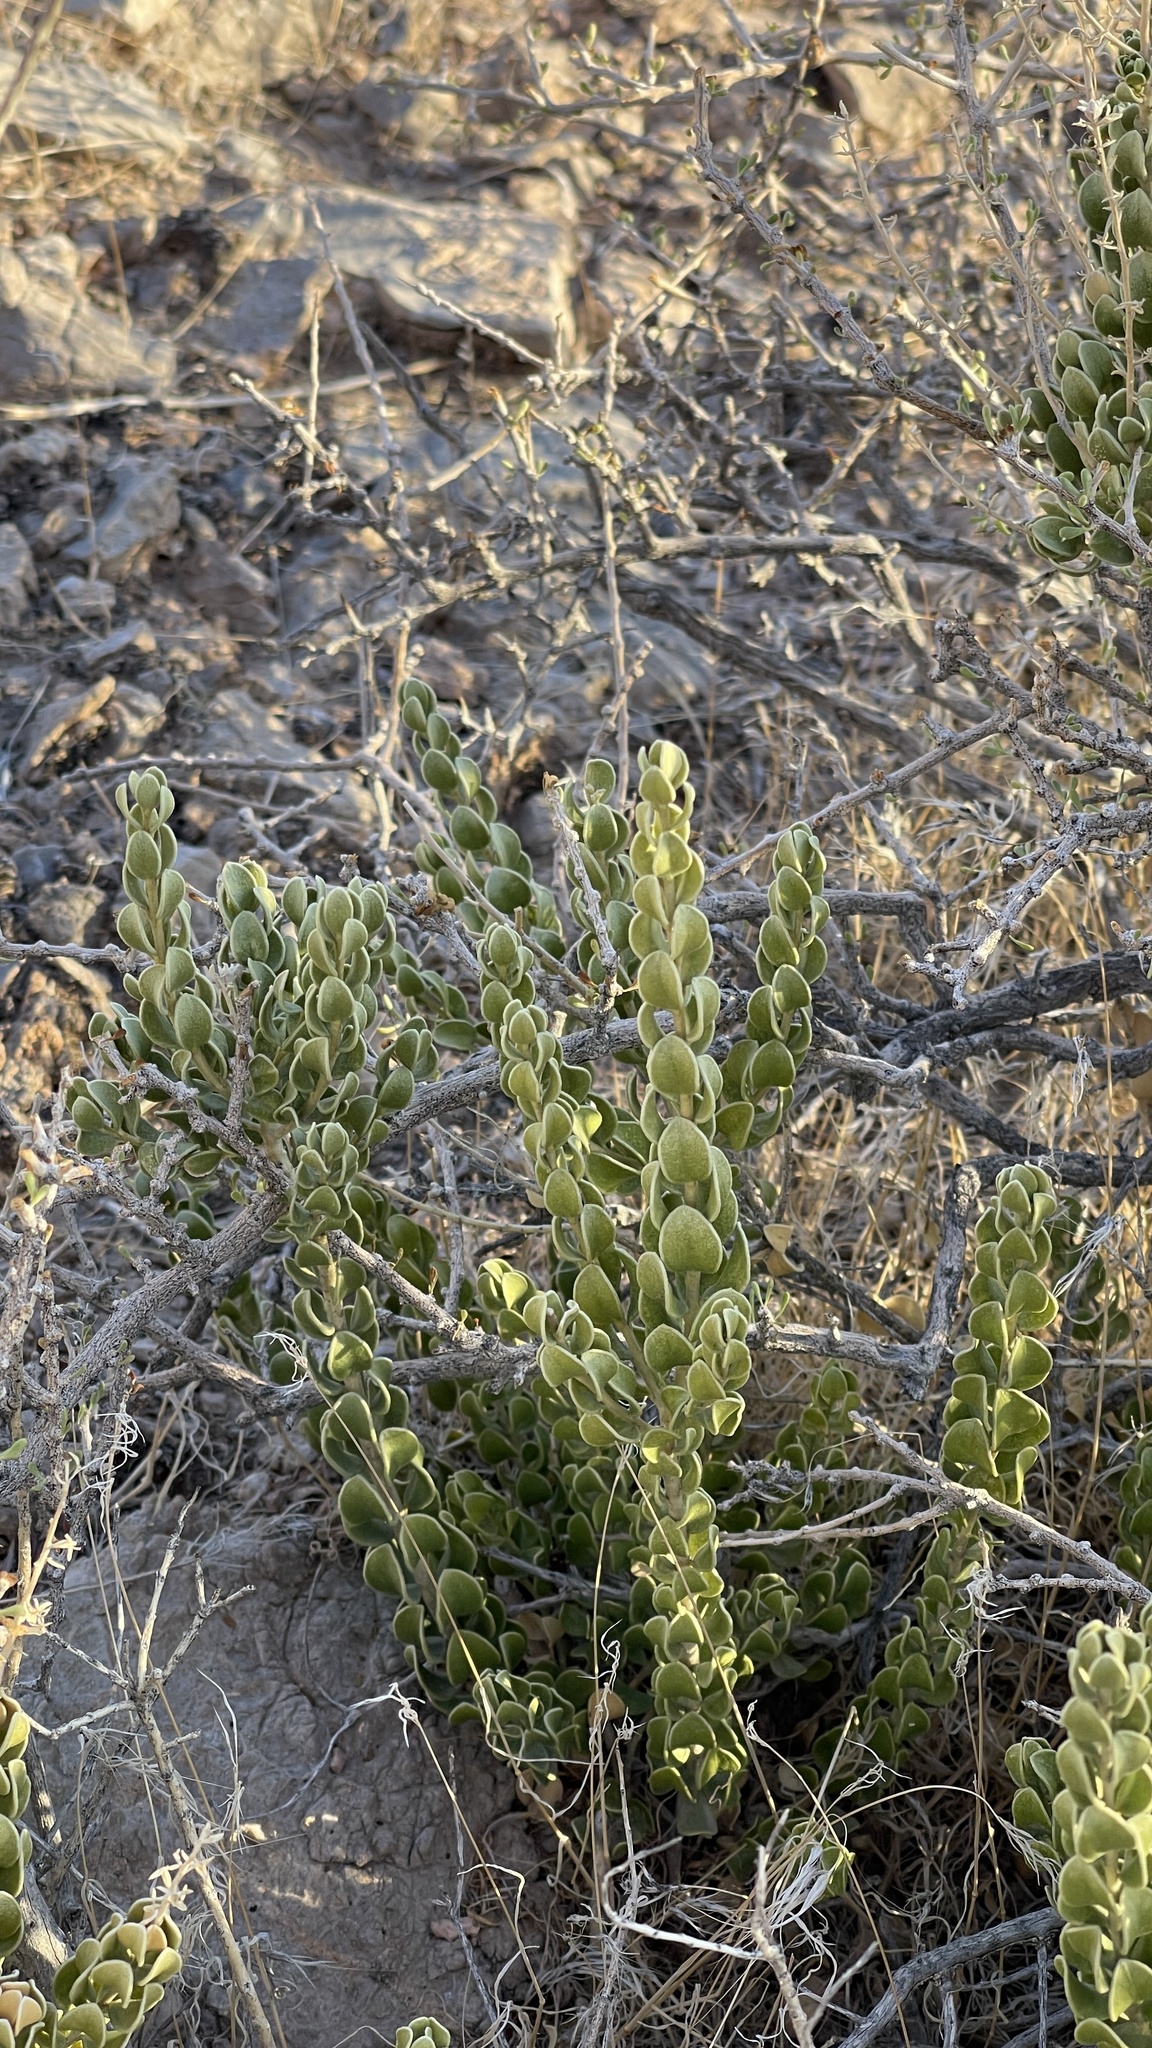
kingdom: Plantae
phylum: Tracheophyta
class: Magnoliopsida
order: Celastrales
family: Celastraceae
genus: Mortonia
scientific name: Mortonia utahensis
